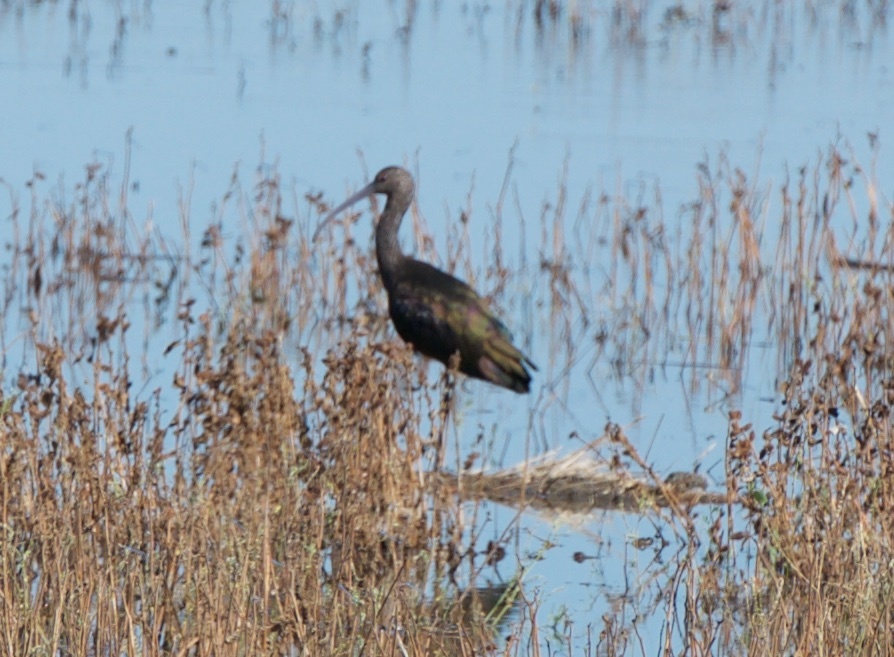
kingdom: Animalia
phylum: Chordata
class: Aves
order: Pelecaniformes
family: Threskiornithidae
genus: Plegadis
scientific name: Plegadis chihi
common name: White-faced ibis
